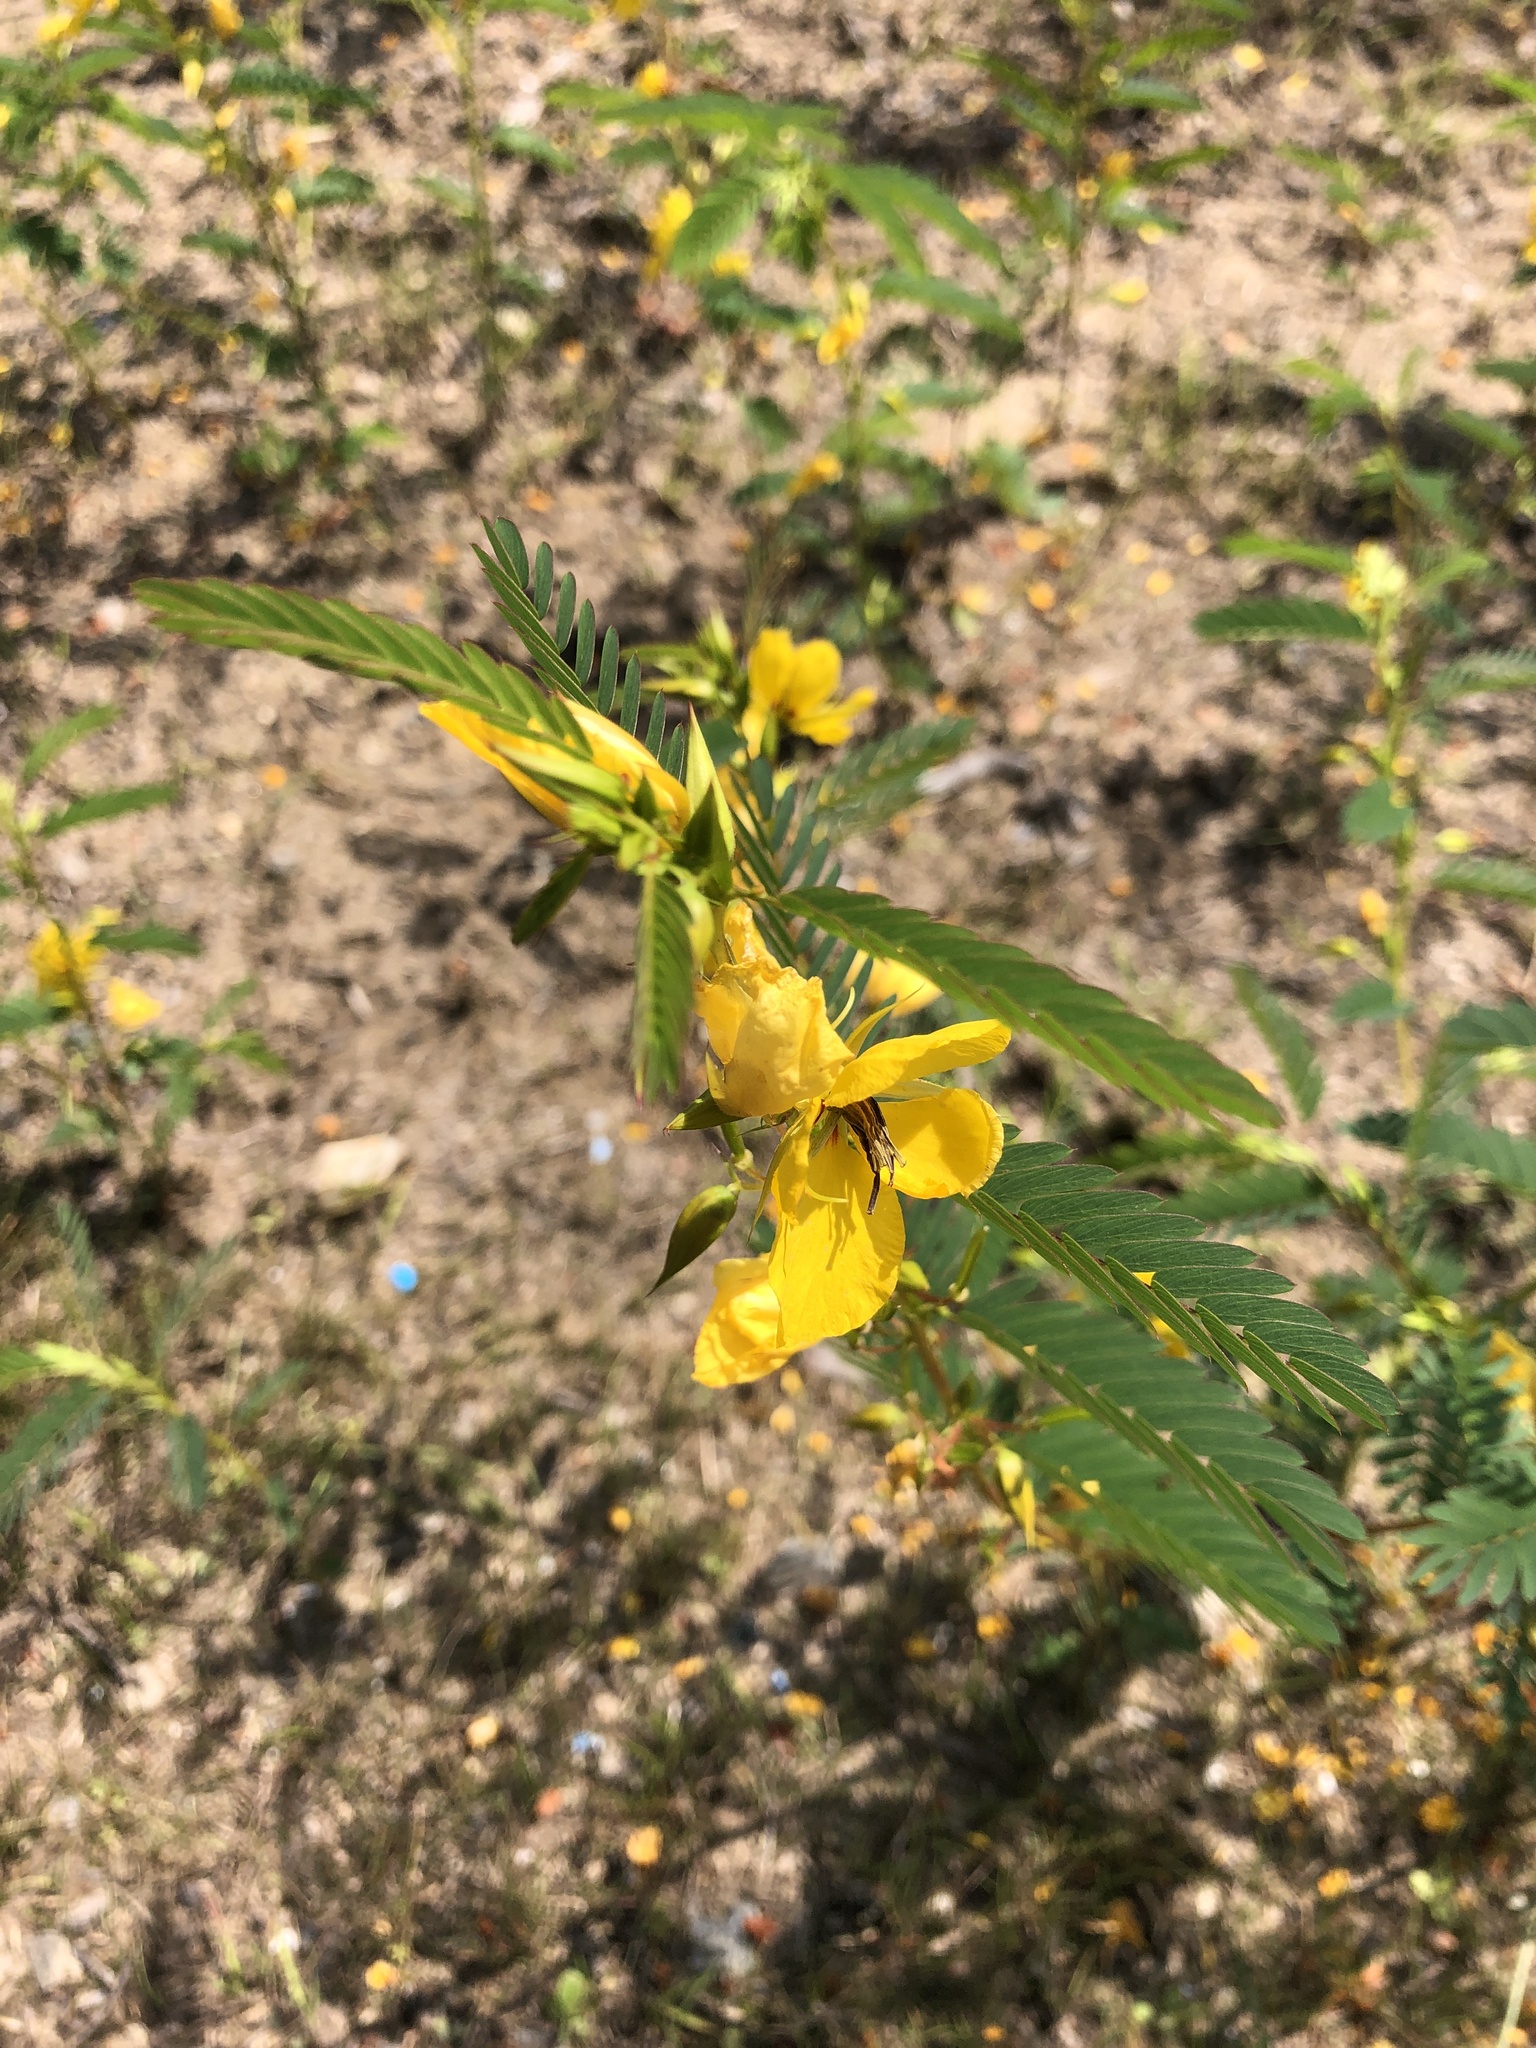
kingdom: Plantae
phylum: Tracheophyta
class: Magnoliopsida
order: Fabales
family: Fabaceae
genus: Chamaecrista
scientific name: Chamaecrista fasciculata
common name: Golden cassia
